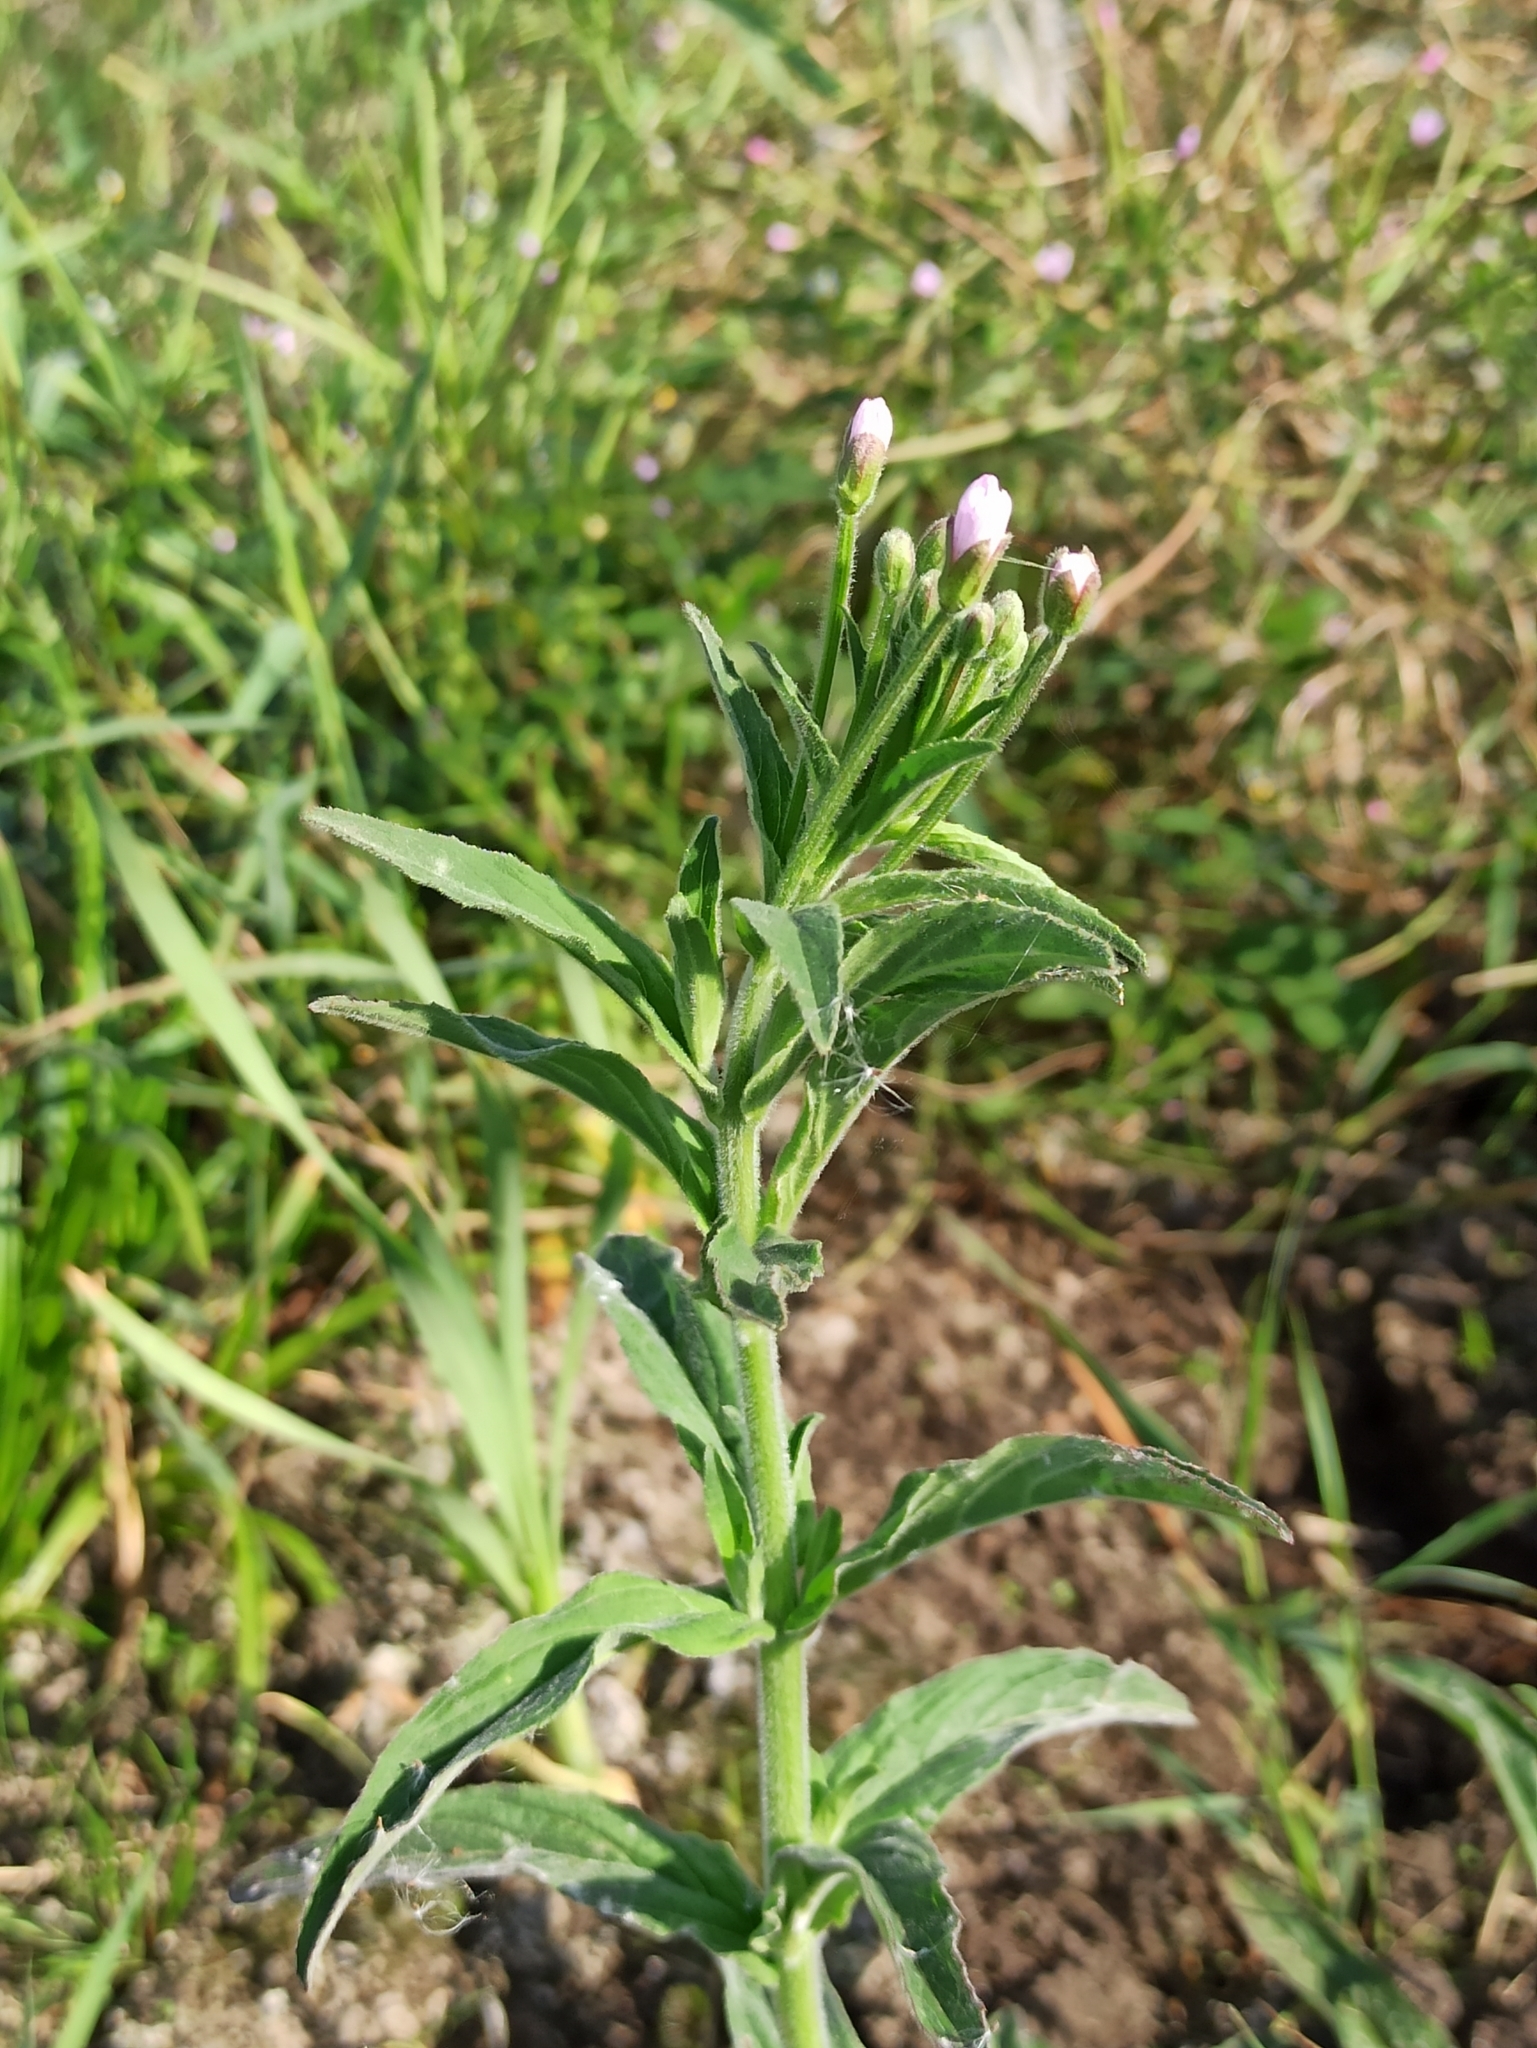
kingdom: Plantae
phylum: Tracheophyta
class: Magnoliopsida
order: Myrtales
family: Onagraceae
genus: Epilobium
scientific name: Epilobium hirsutum
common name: Great willowherb
